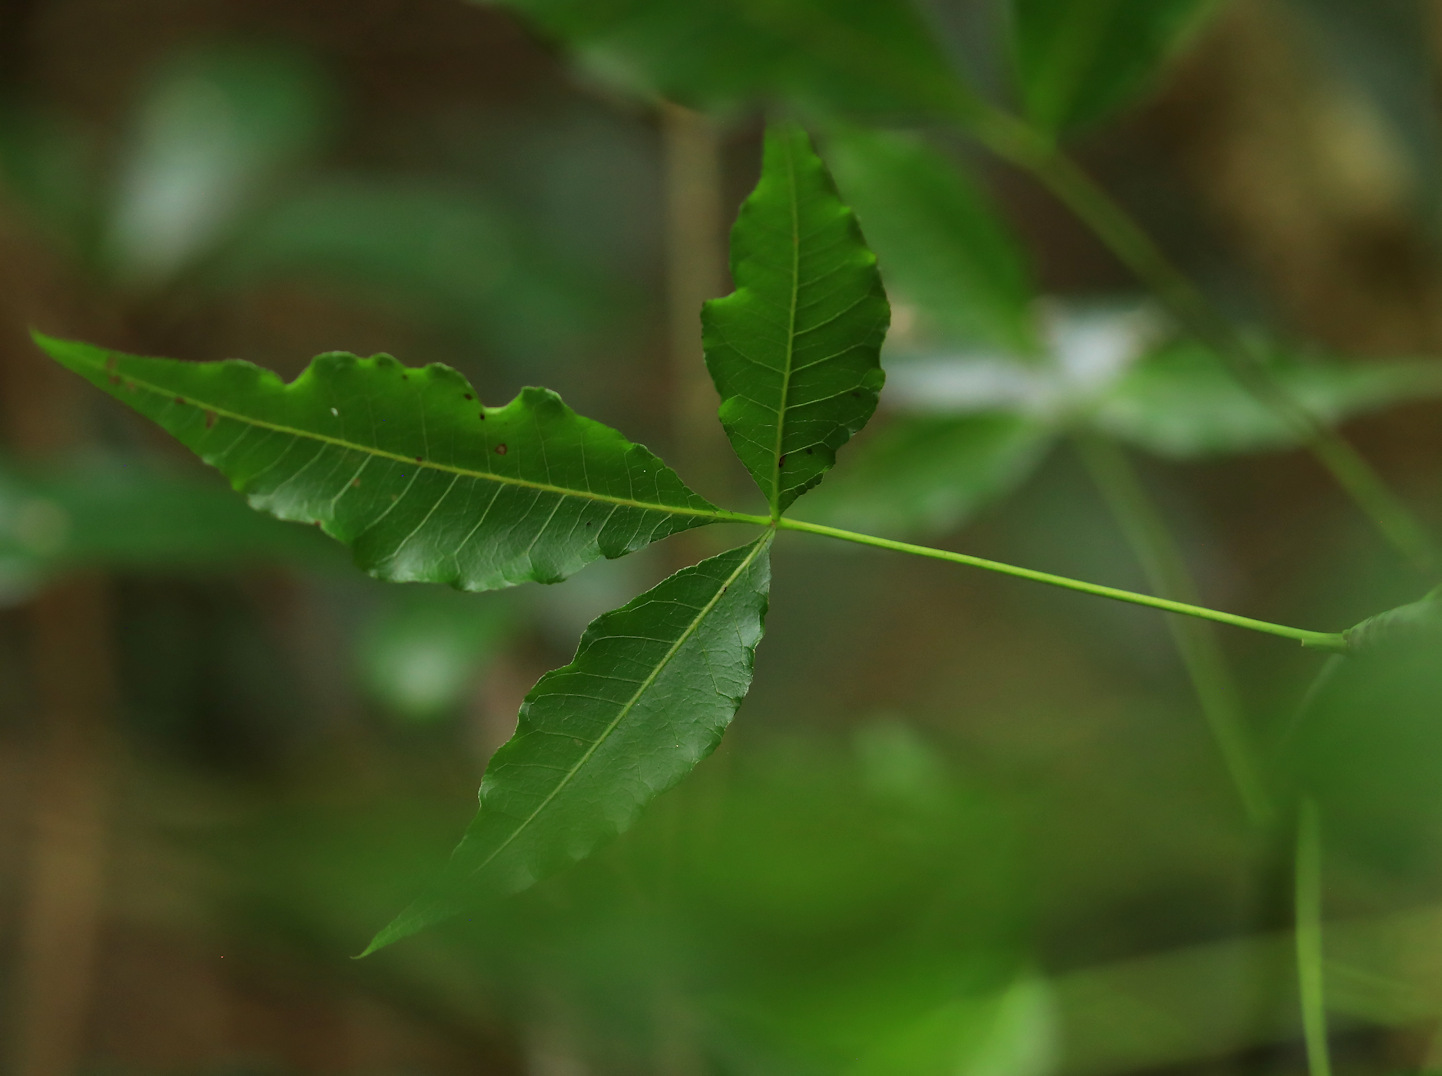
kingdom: Plantae
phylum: Tracheophyta
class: Magnoliopsida
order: Sapindales
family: Anacardiaceae
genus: Searsia
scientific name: Searsia chirindensis
